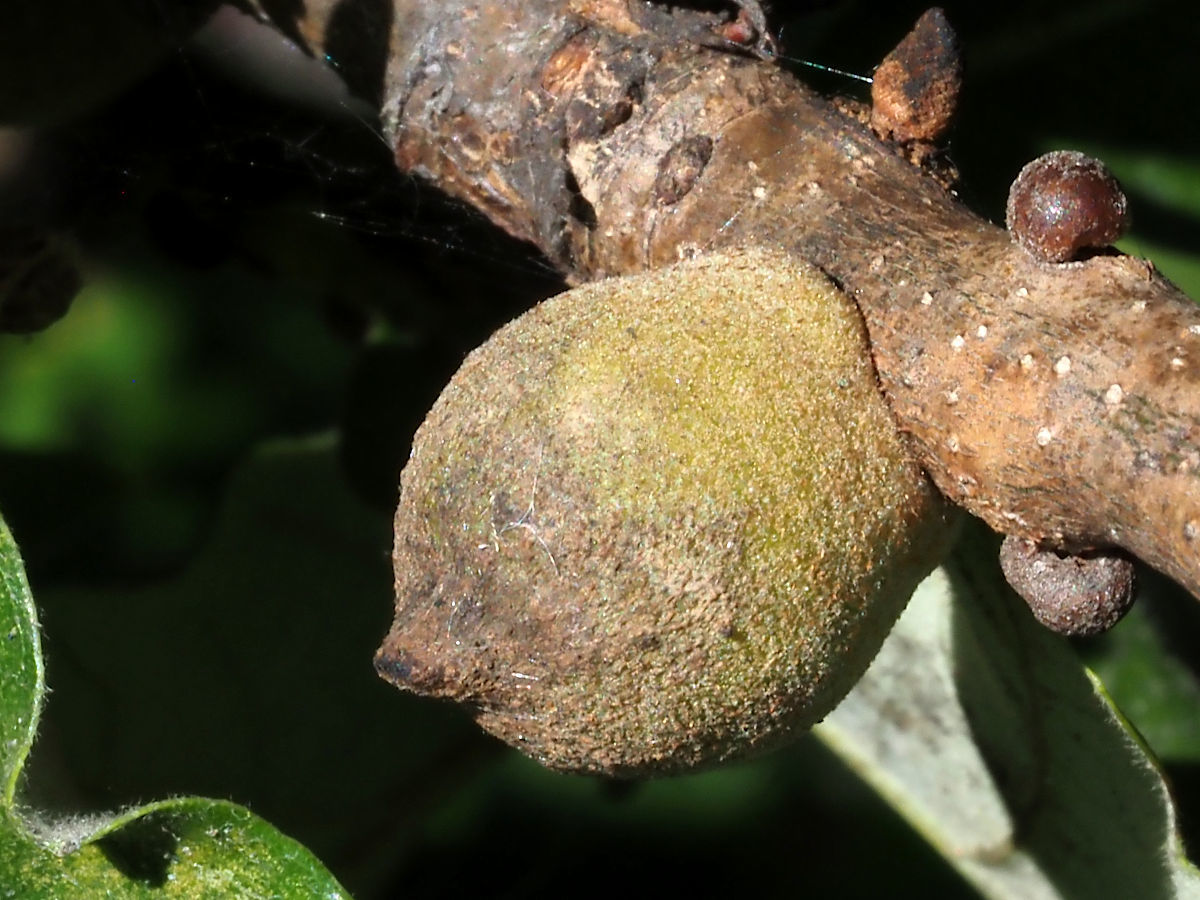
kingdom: Animalia
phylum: Arthropoda
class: Insecta
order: Hymenoptera
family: Cynipidae
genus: Disholcaspis
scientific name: Disholcaspis
